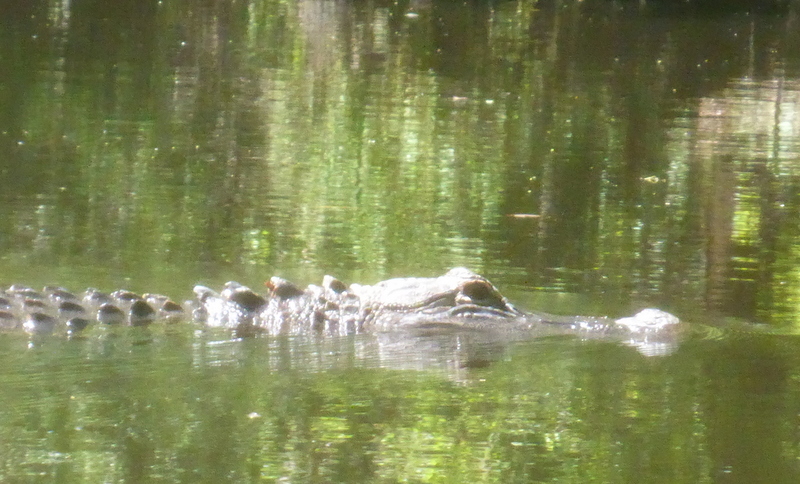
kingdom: Animalia
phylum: Chordata
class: Crocodylia
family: Alligatoridae
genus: Alligator
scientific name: Alligator mississippiensis
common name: American alligator
